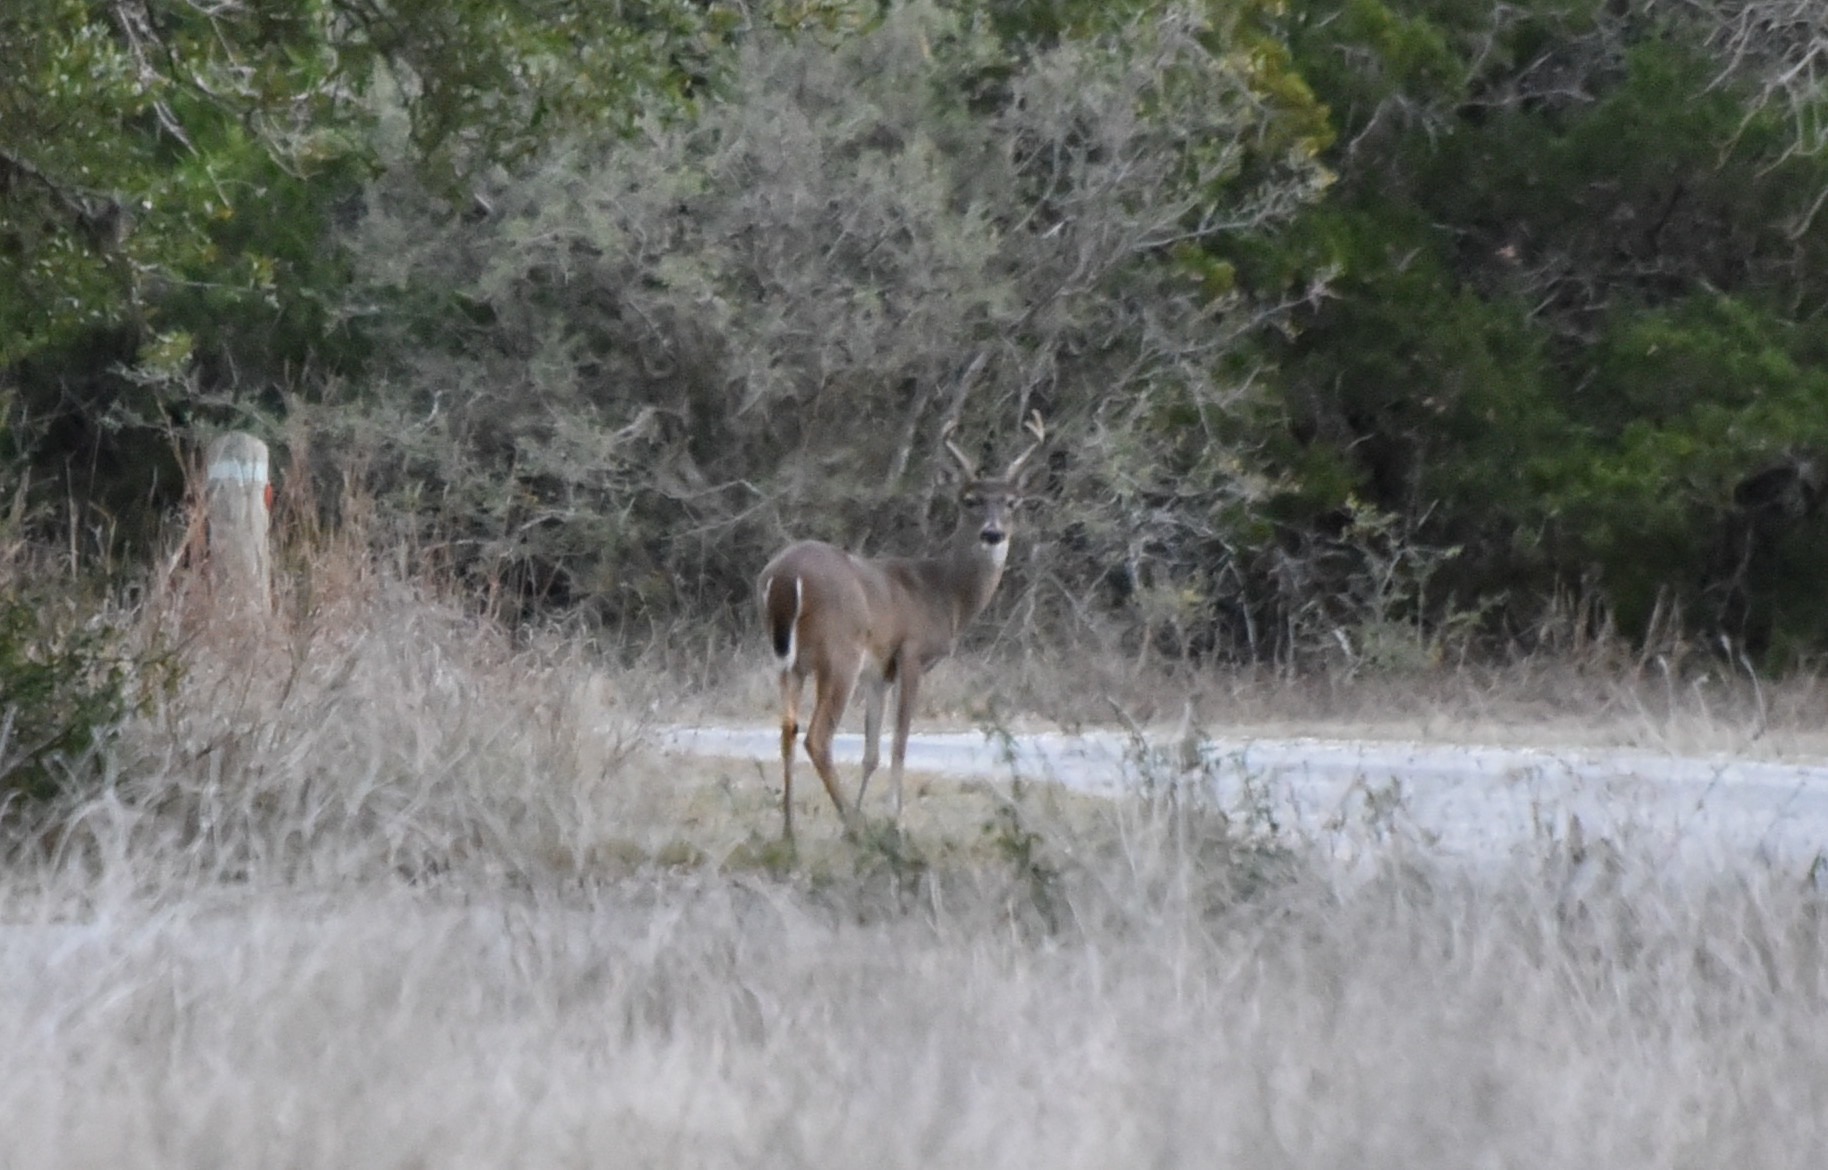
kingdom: Animalia
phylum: Chordata
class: Mammalia
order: Artiodactyla
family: Cervidae
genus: Odocoileus
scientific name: Odocoileus virginianus
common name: White-tailed deer
